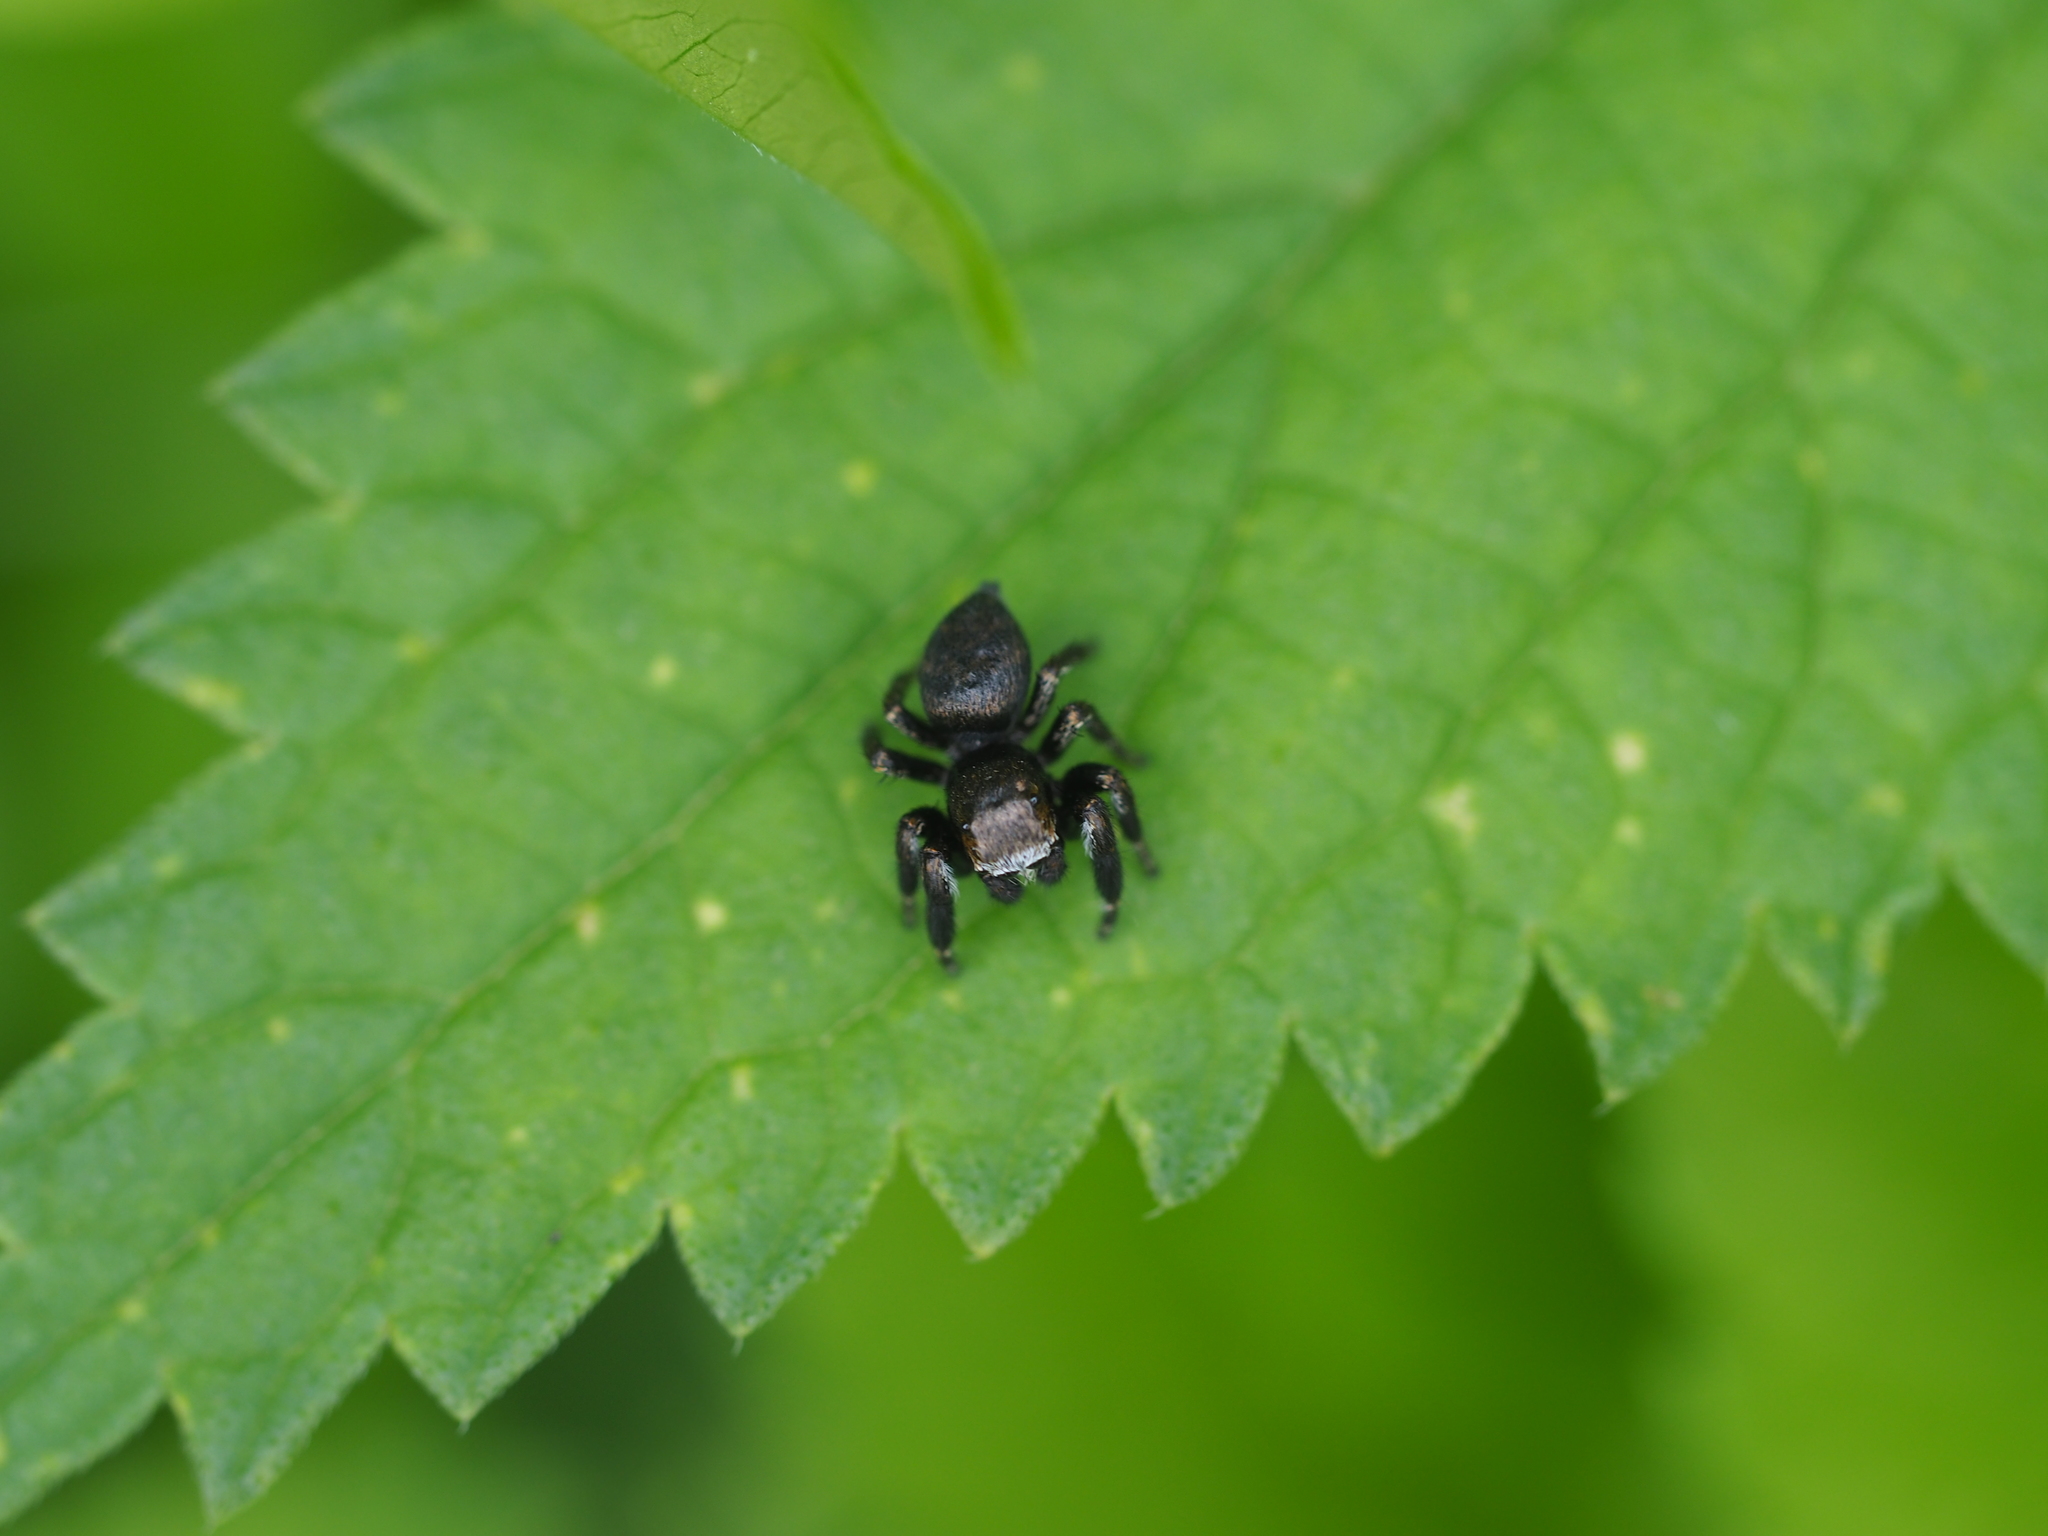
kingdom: Animalia
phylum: Arthropoda
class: Arachnida
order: Araneae
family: Salticidae
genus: Evarcha
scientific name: Evarcha arcuata
